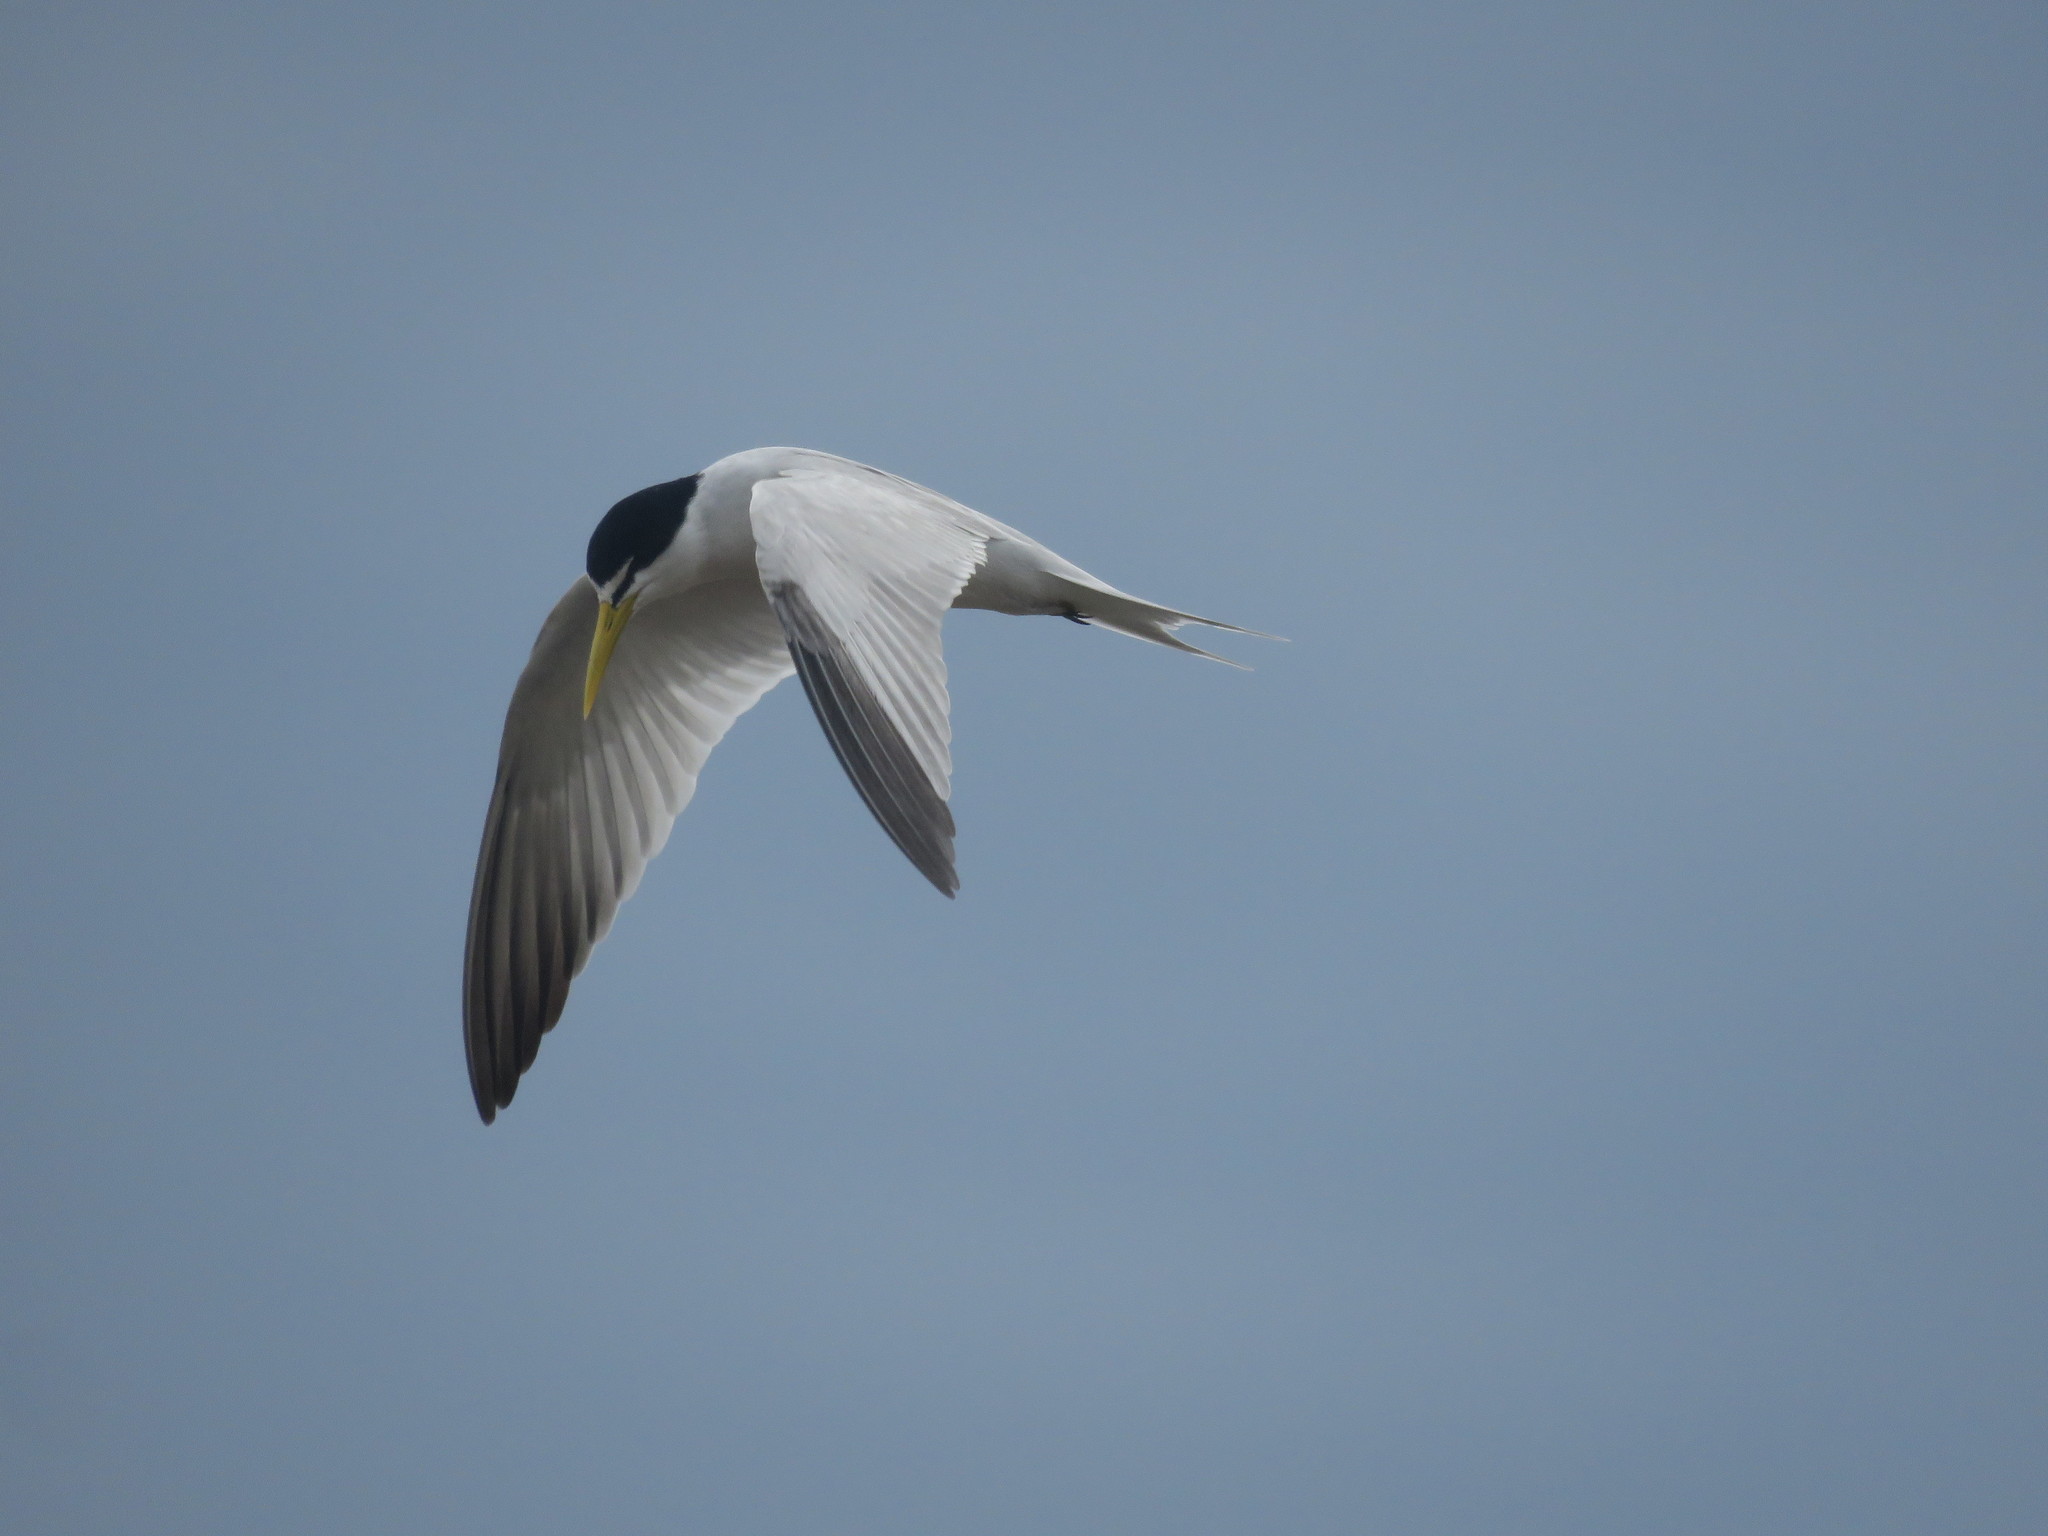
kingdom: Animalia
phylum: Chordata
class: Aves
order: Charadriiformes
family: Laridae
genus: Sternula
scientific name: Sternula superciliaris
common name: Yellow-billed tern
